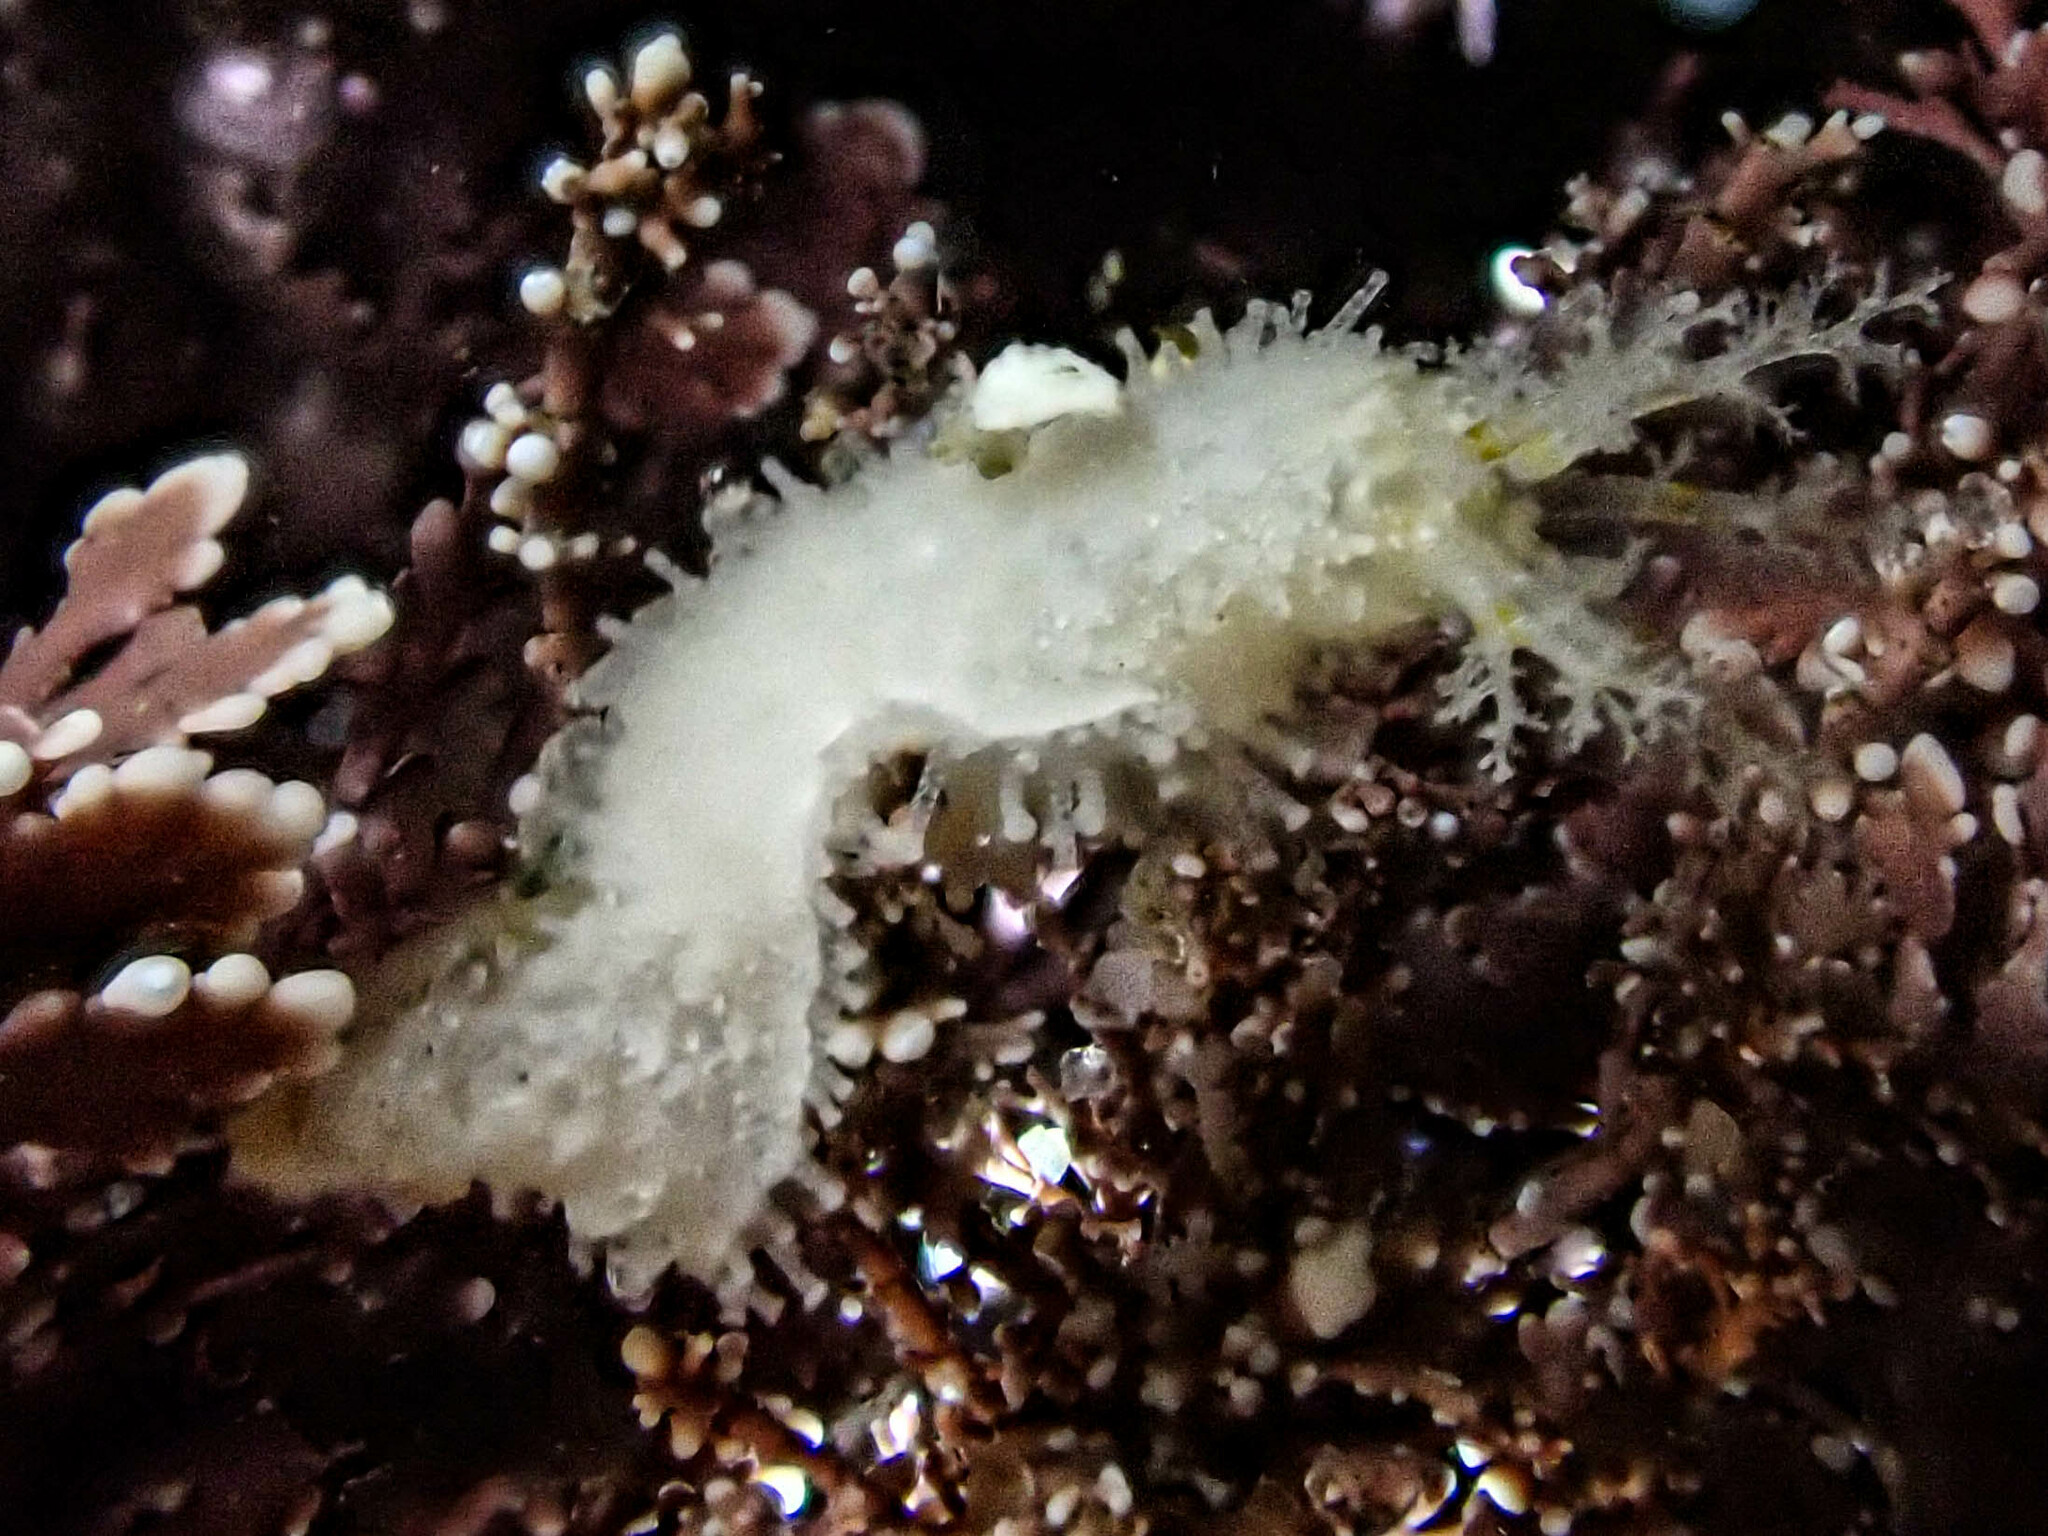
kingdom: Animalia
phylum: Echinodermata
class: Holothuroidea
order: Dendrochirotida
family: Sclerodactylidae
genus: Eupentacta
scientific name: Eupentacta quinquesemita
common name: Pentamerous sea cucumber
